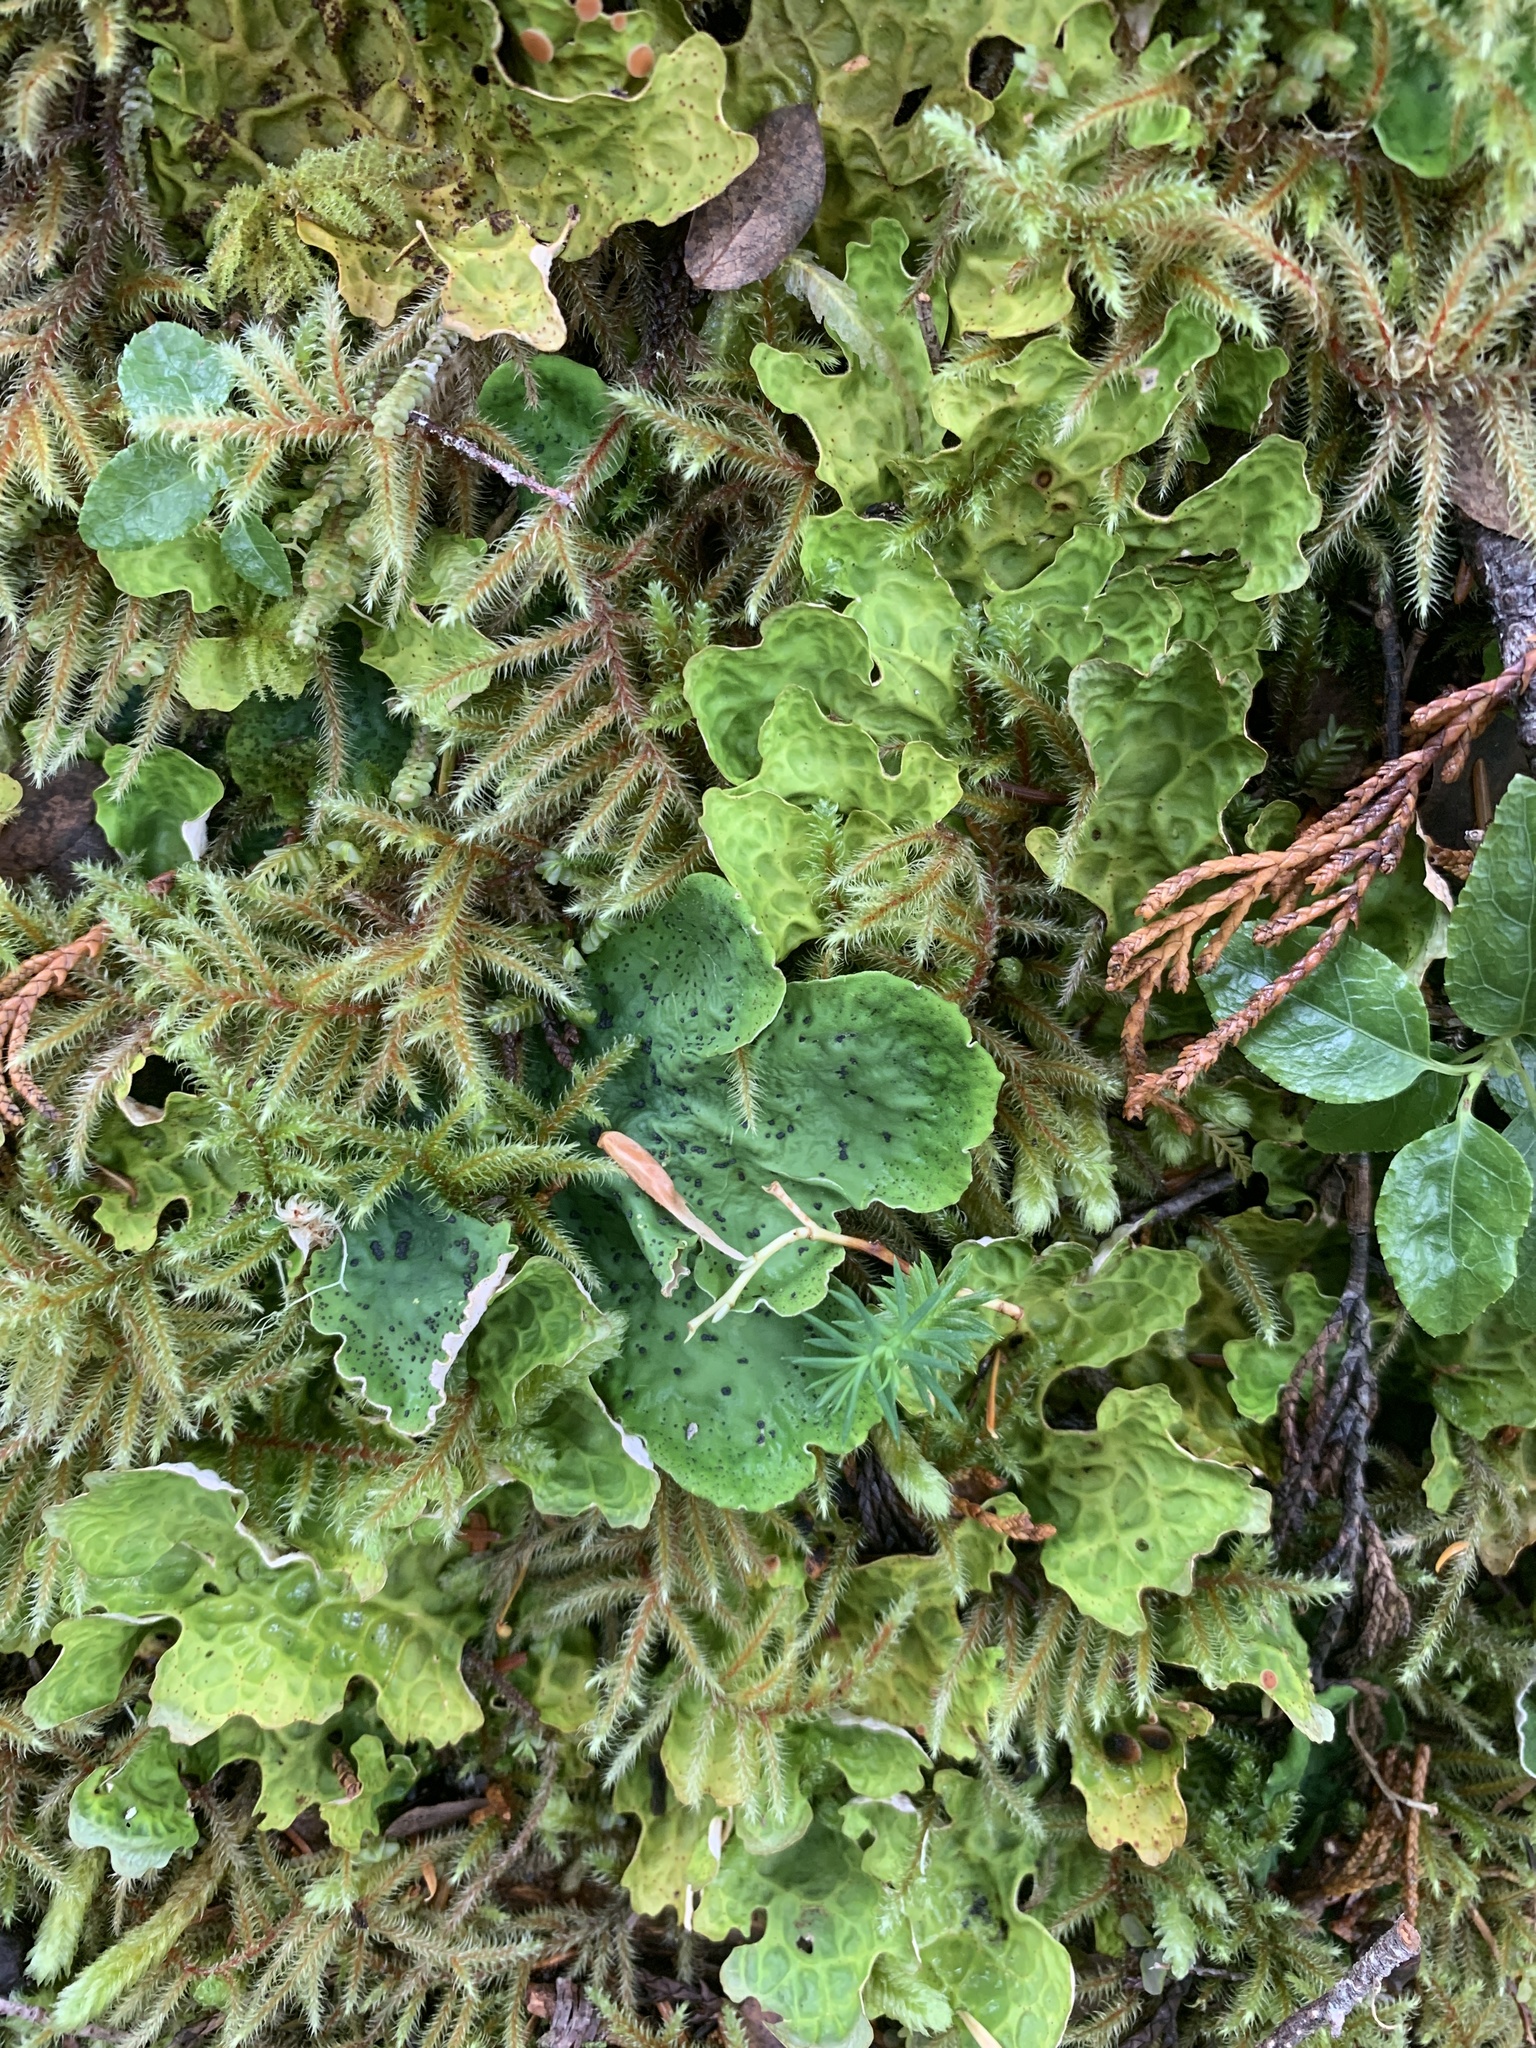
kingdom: Fungi
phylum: Ascomycota
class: Lecanoromycetes
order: Peltigerales
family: Peltigeraceae
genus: Peltigera
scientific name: Peltigera aphthosa
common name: Common freckle pelt lichen
